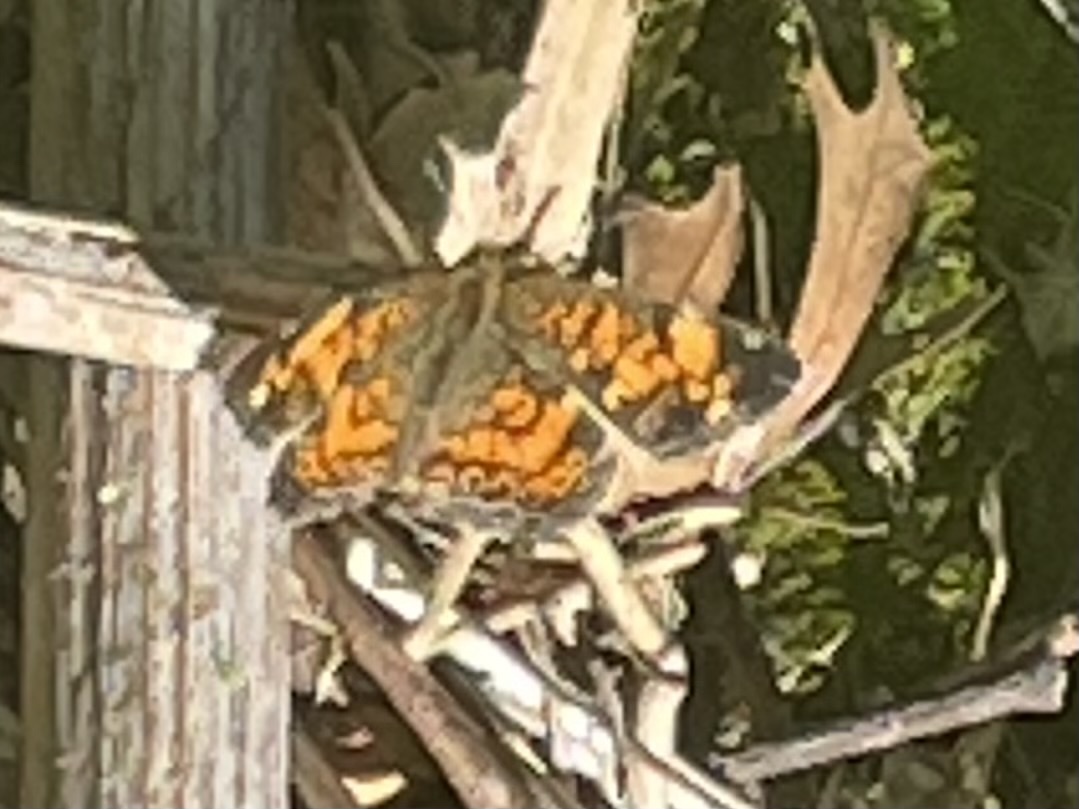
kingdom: Animalia
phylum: Arthropoda
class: Insecta
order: Lepidoptera
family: Nymphalidae
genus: Phyciodes
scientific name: Phyciodes tharos
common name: Pearl crescent
